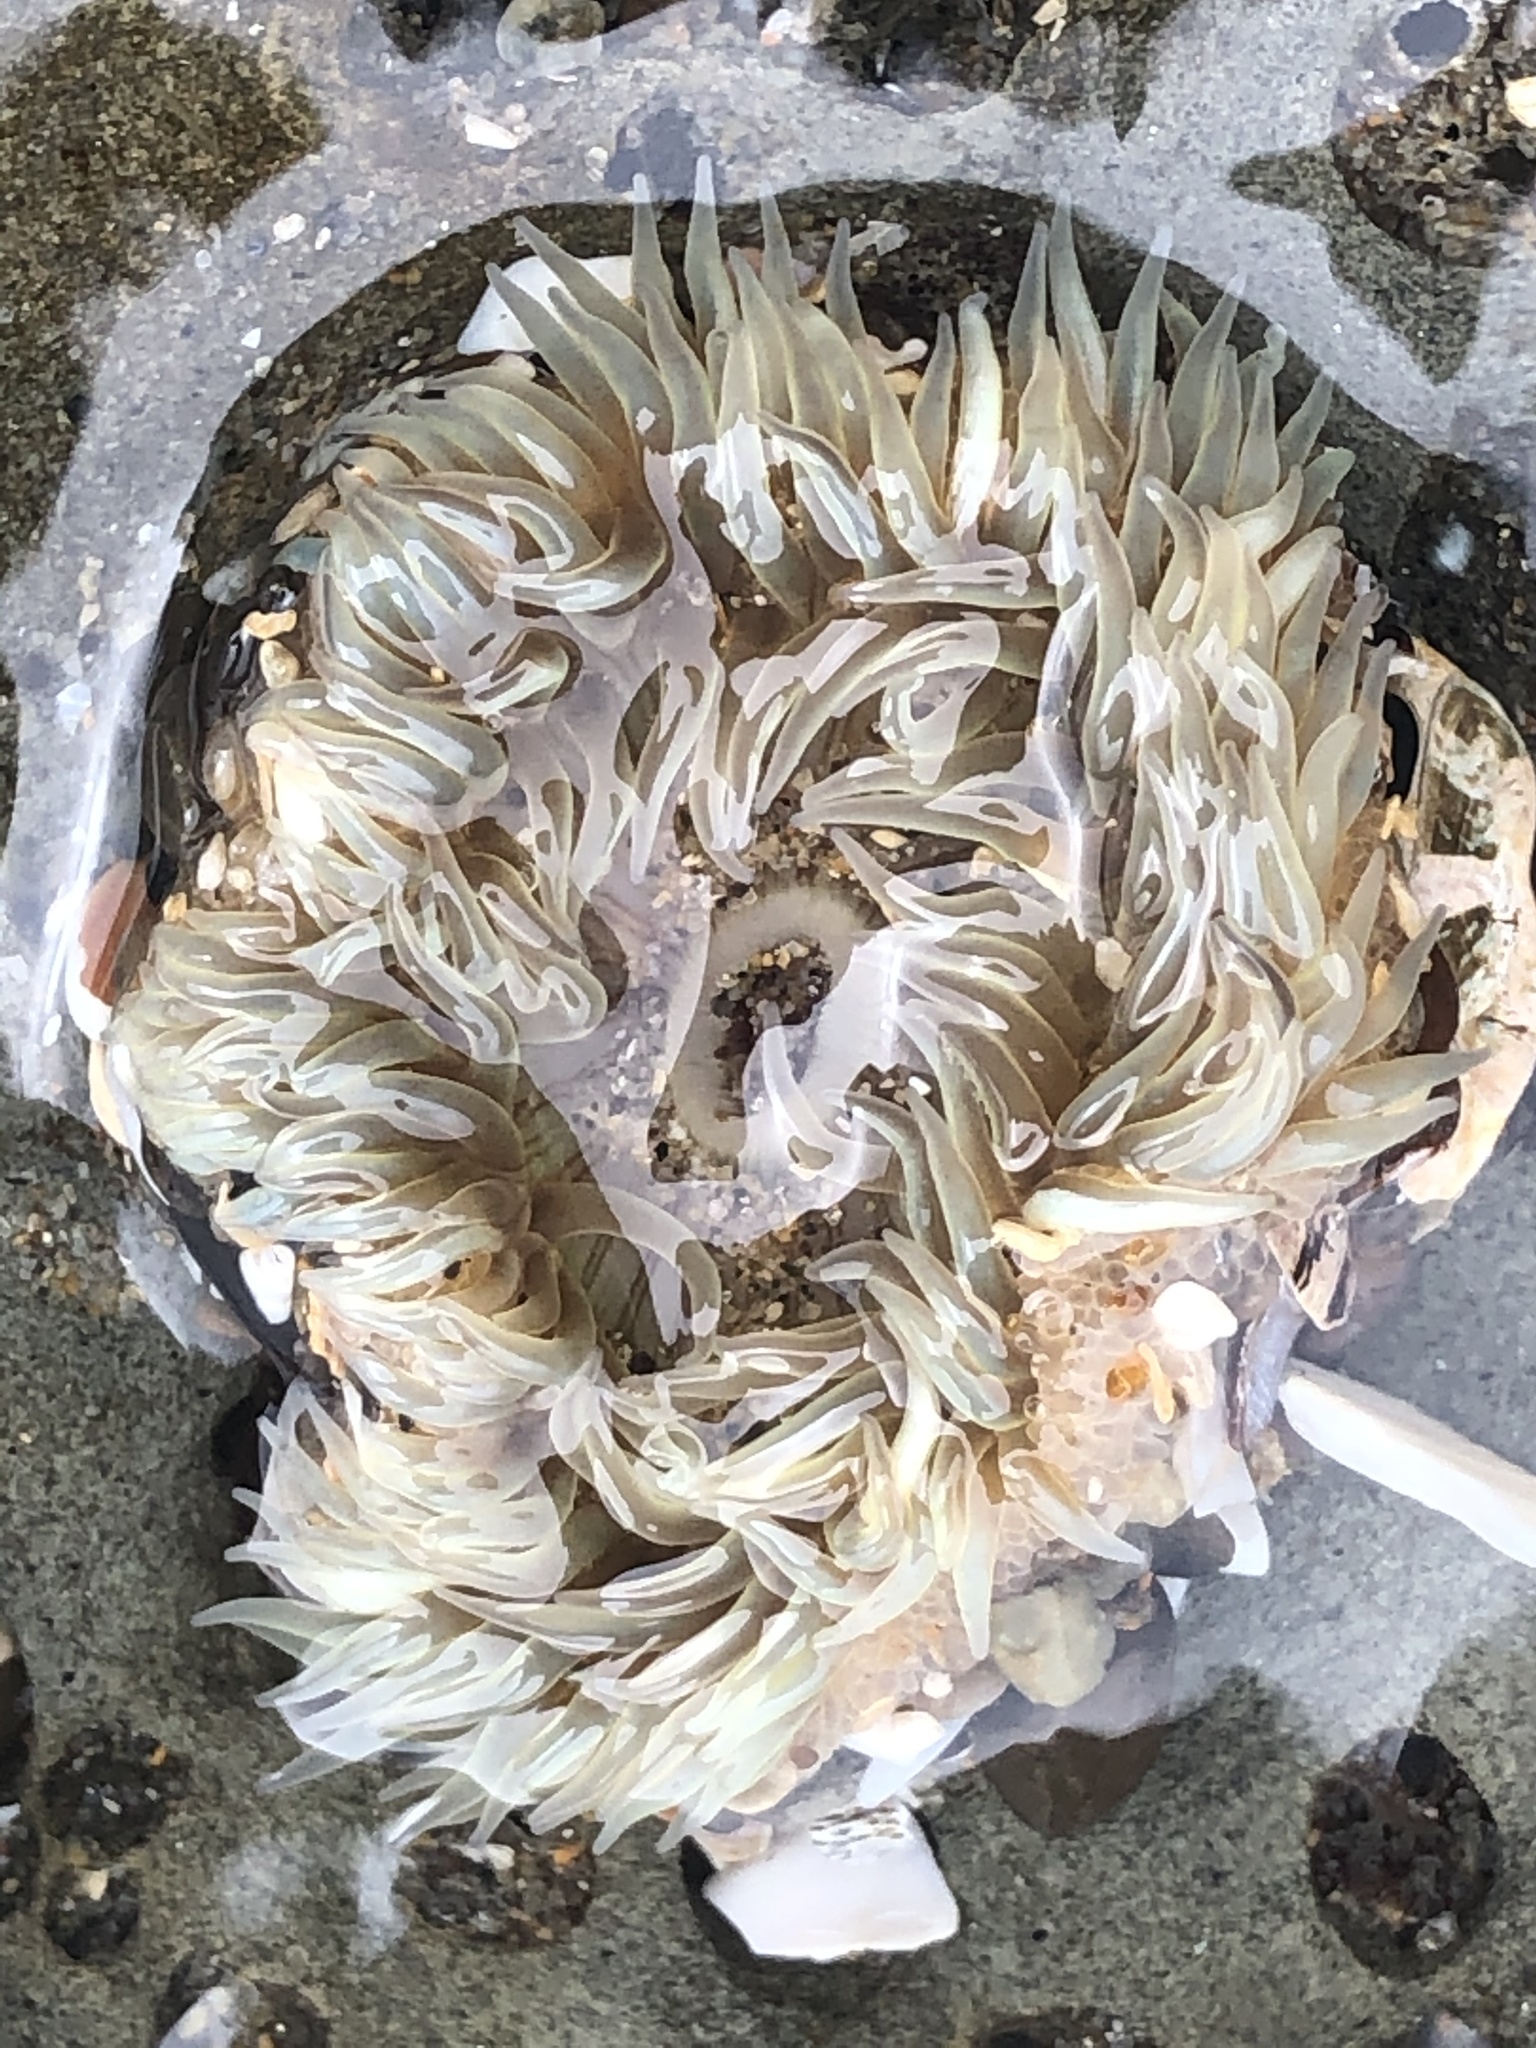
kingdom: Animalia
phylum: Cnidaria
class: Anthozoa
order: Actiniaria
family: Actiniidae
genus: Anthopleura
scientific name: Anthopleura sola
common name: Sun anemone
